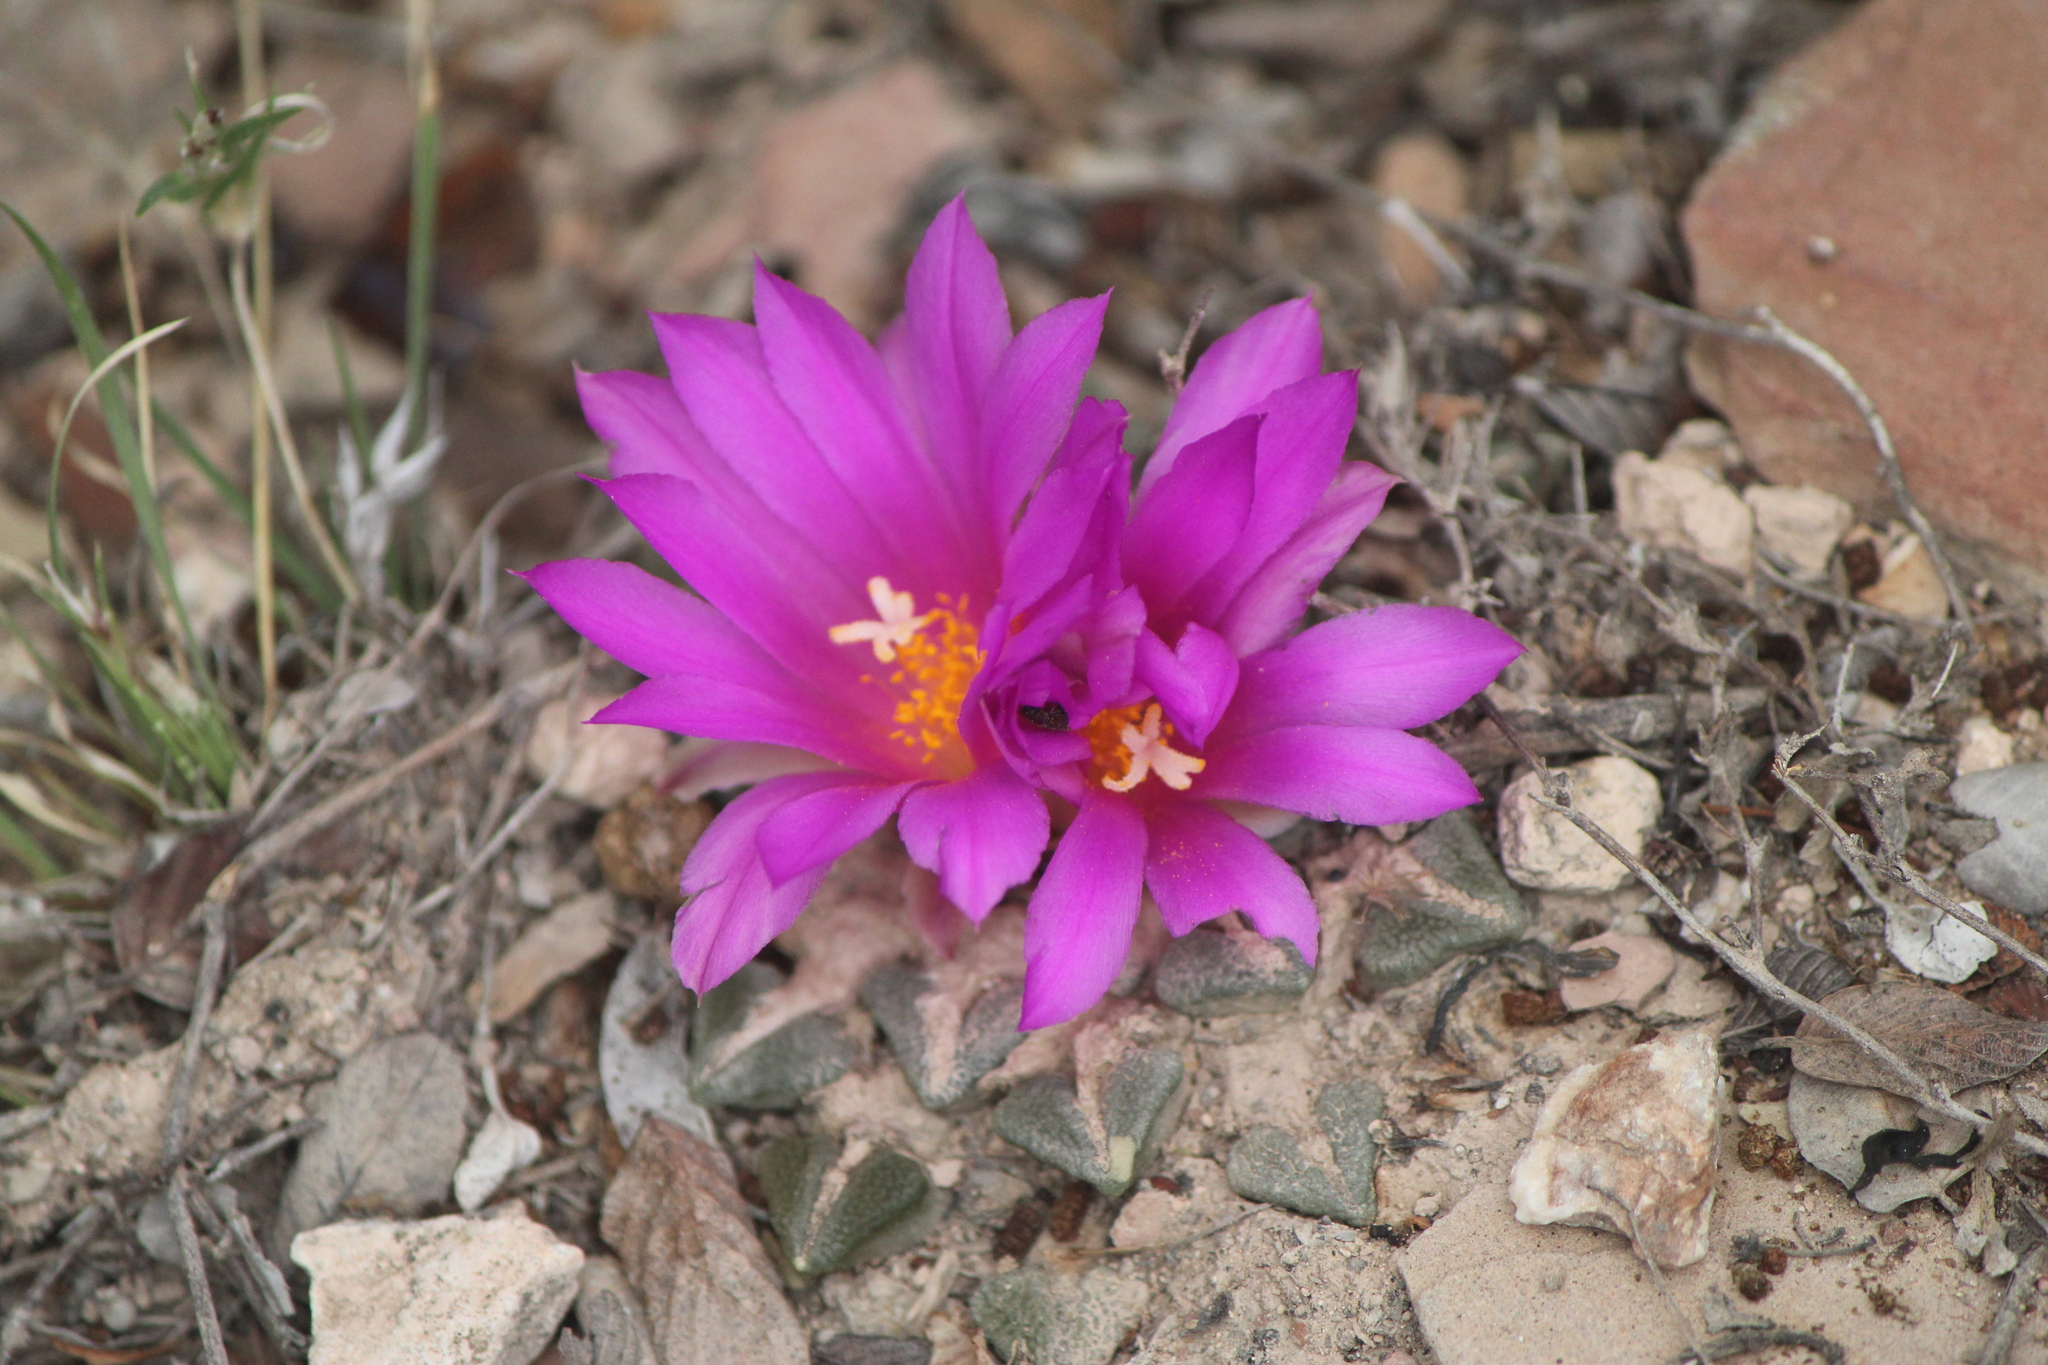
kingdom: Plantae
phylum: Tracheophyta
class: Magnoliopsida
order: Caryophyllales
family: Cactaceae
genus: Ariocarpus
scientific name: Ariocarpus kotschoubeyanus
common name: Living-rock
